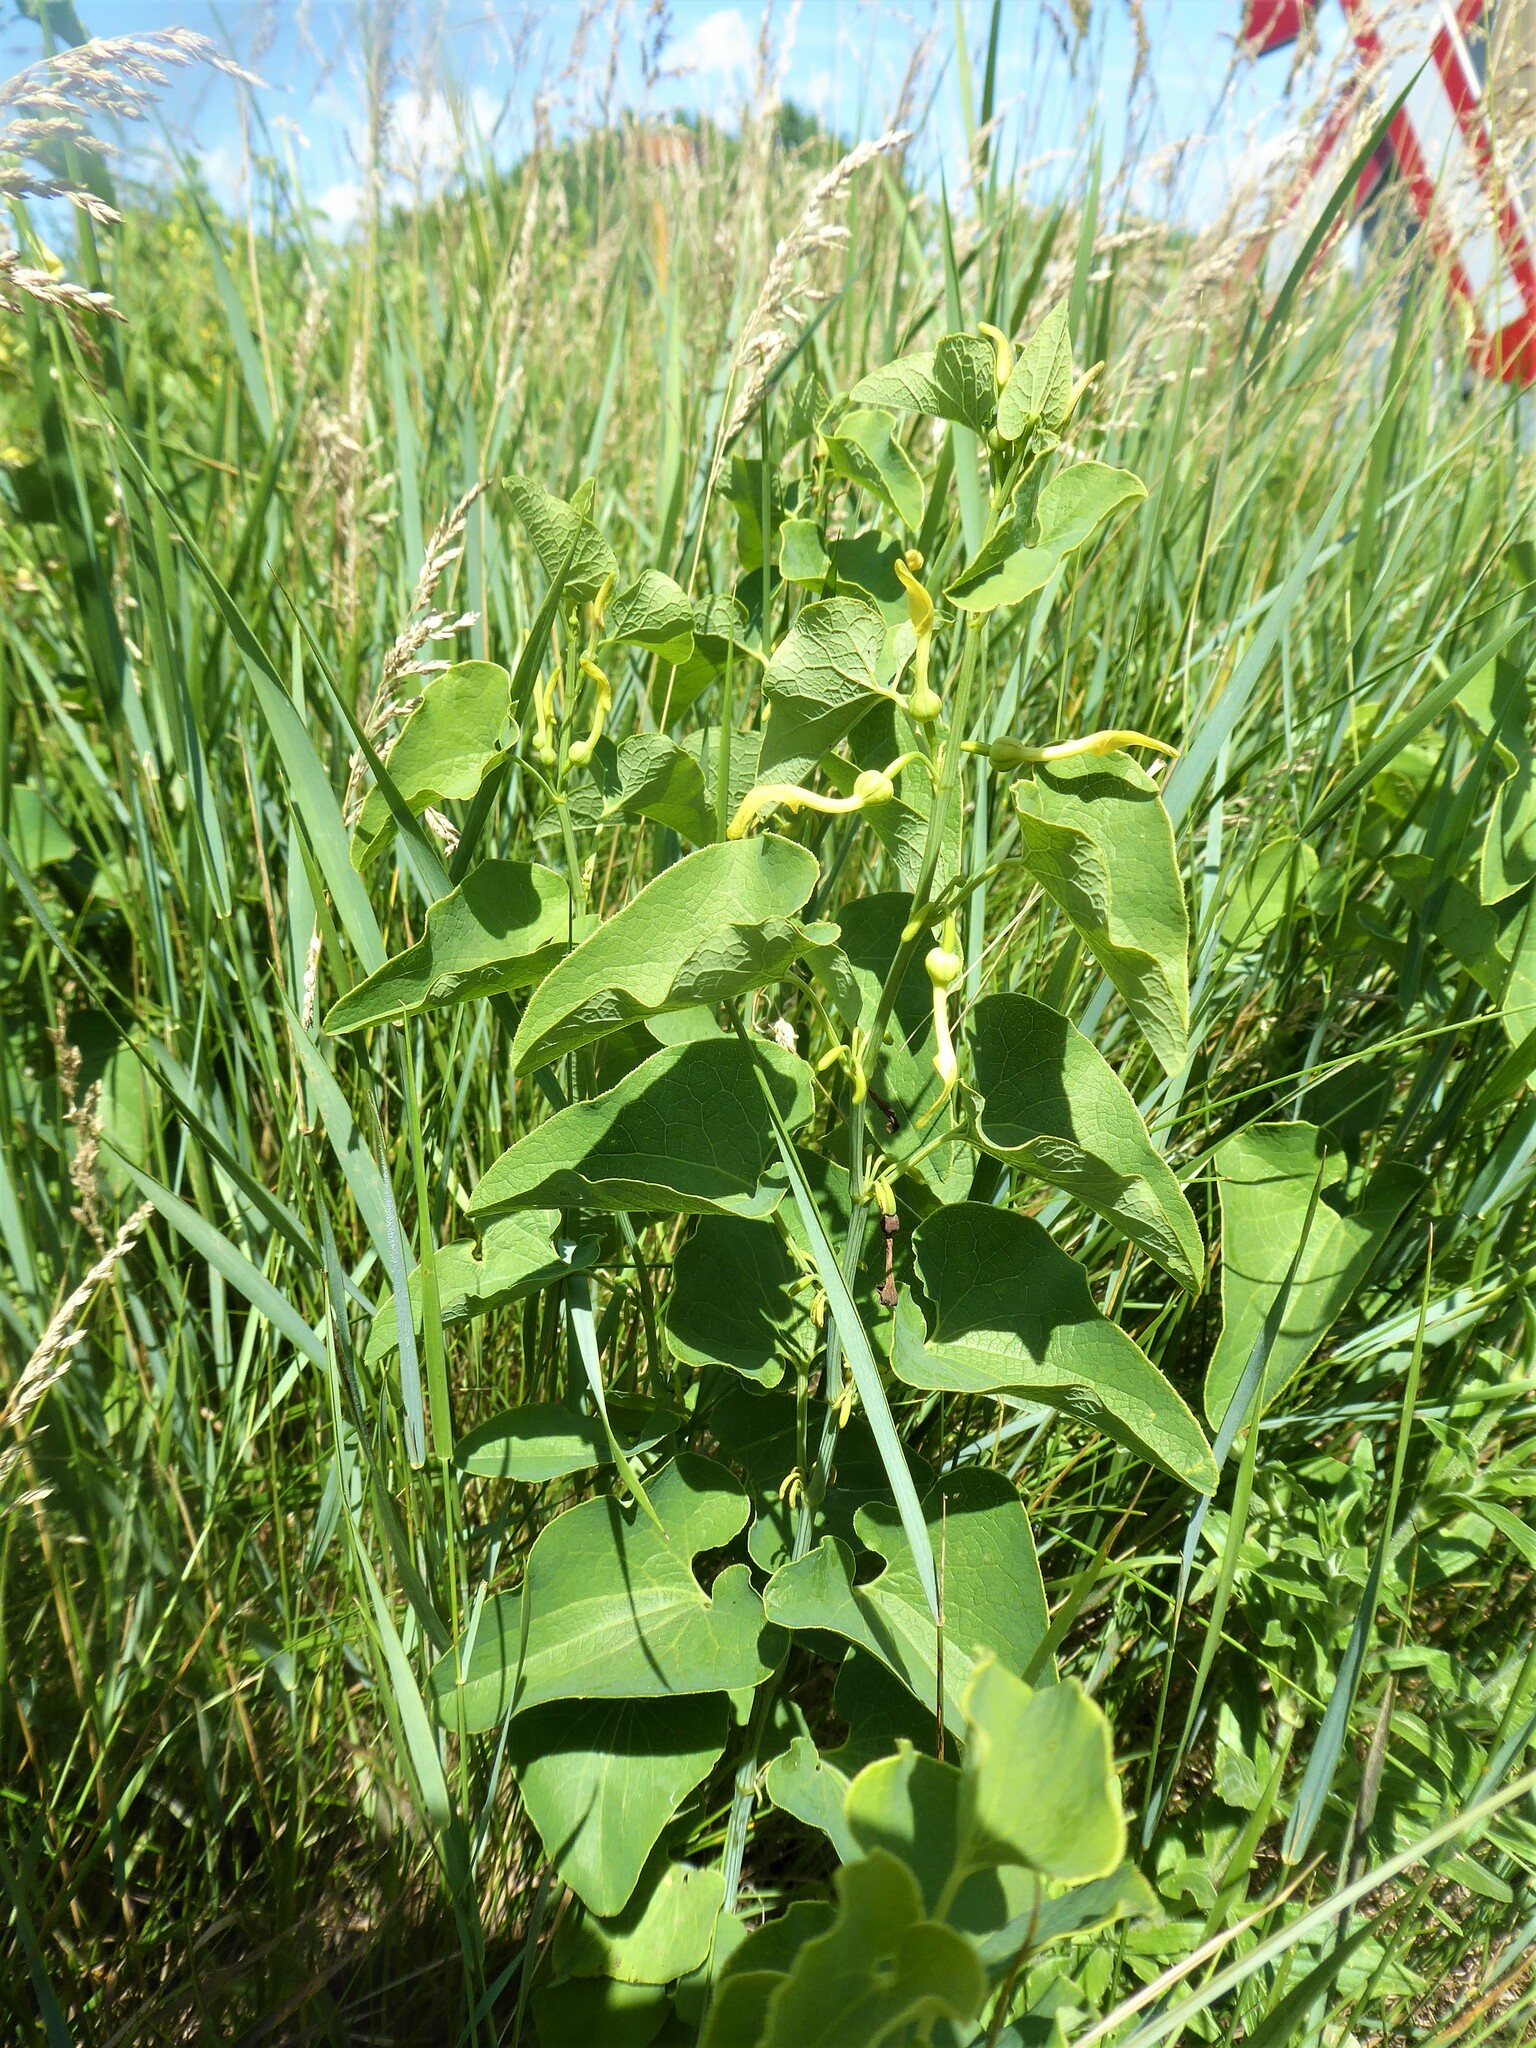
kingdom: Plantae
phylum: Tracheophyta
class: Magnoliopsida
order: Piperales
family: Aristolochiaceae
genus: Aristolochia
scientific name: Aristolochia clematitis
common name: Birthwort
